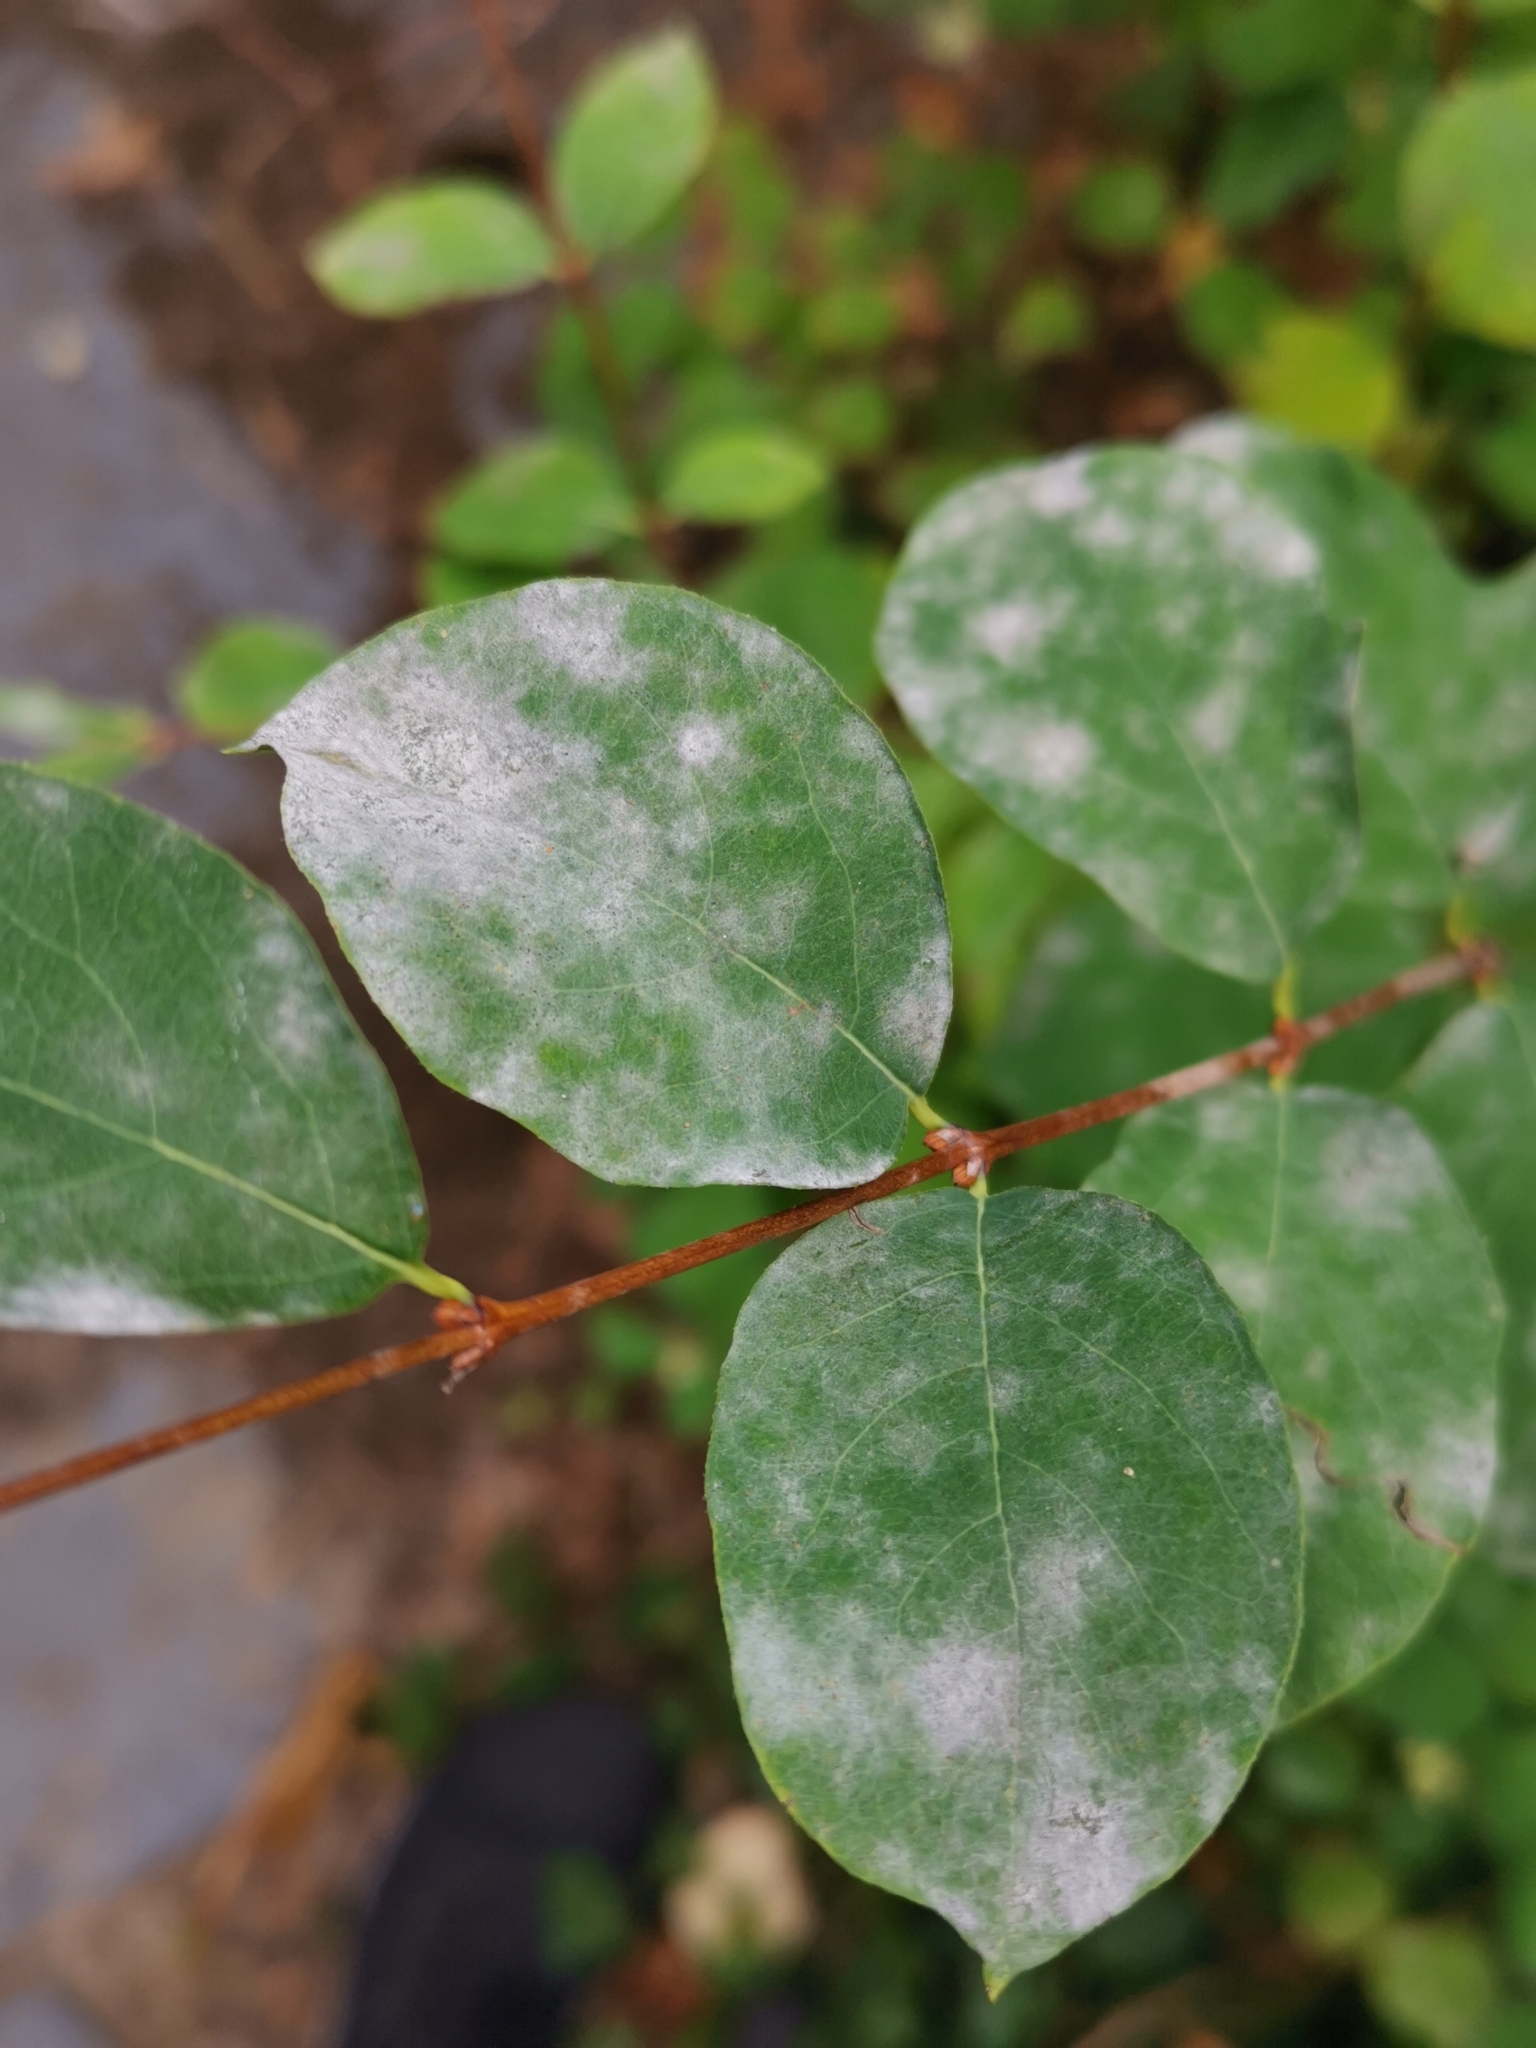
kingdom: Fungi
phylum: Ascomycota
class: Leotiomycetes
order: Helotiales
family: Erysiphaceae
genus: Erysiphe
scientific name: Erysiphe symphoricarpi
